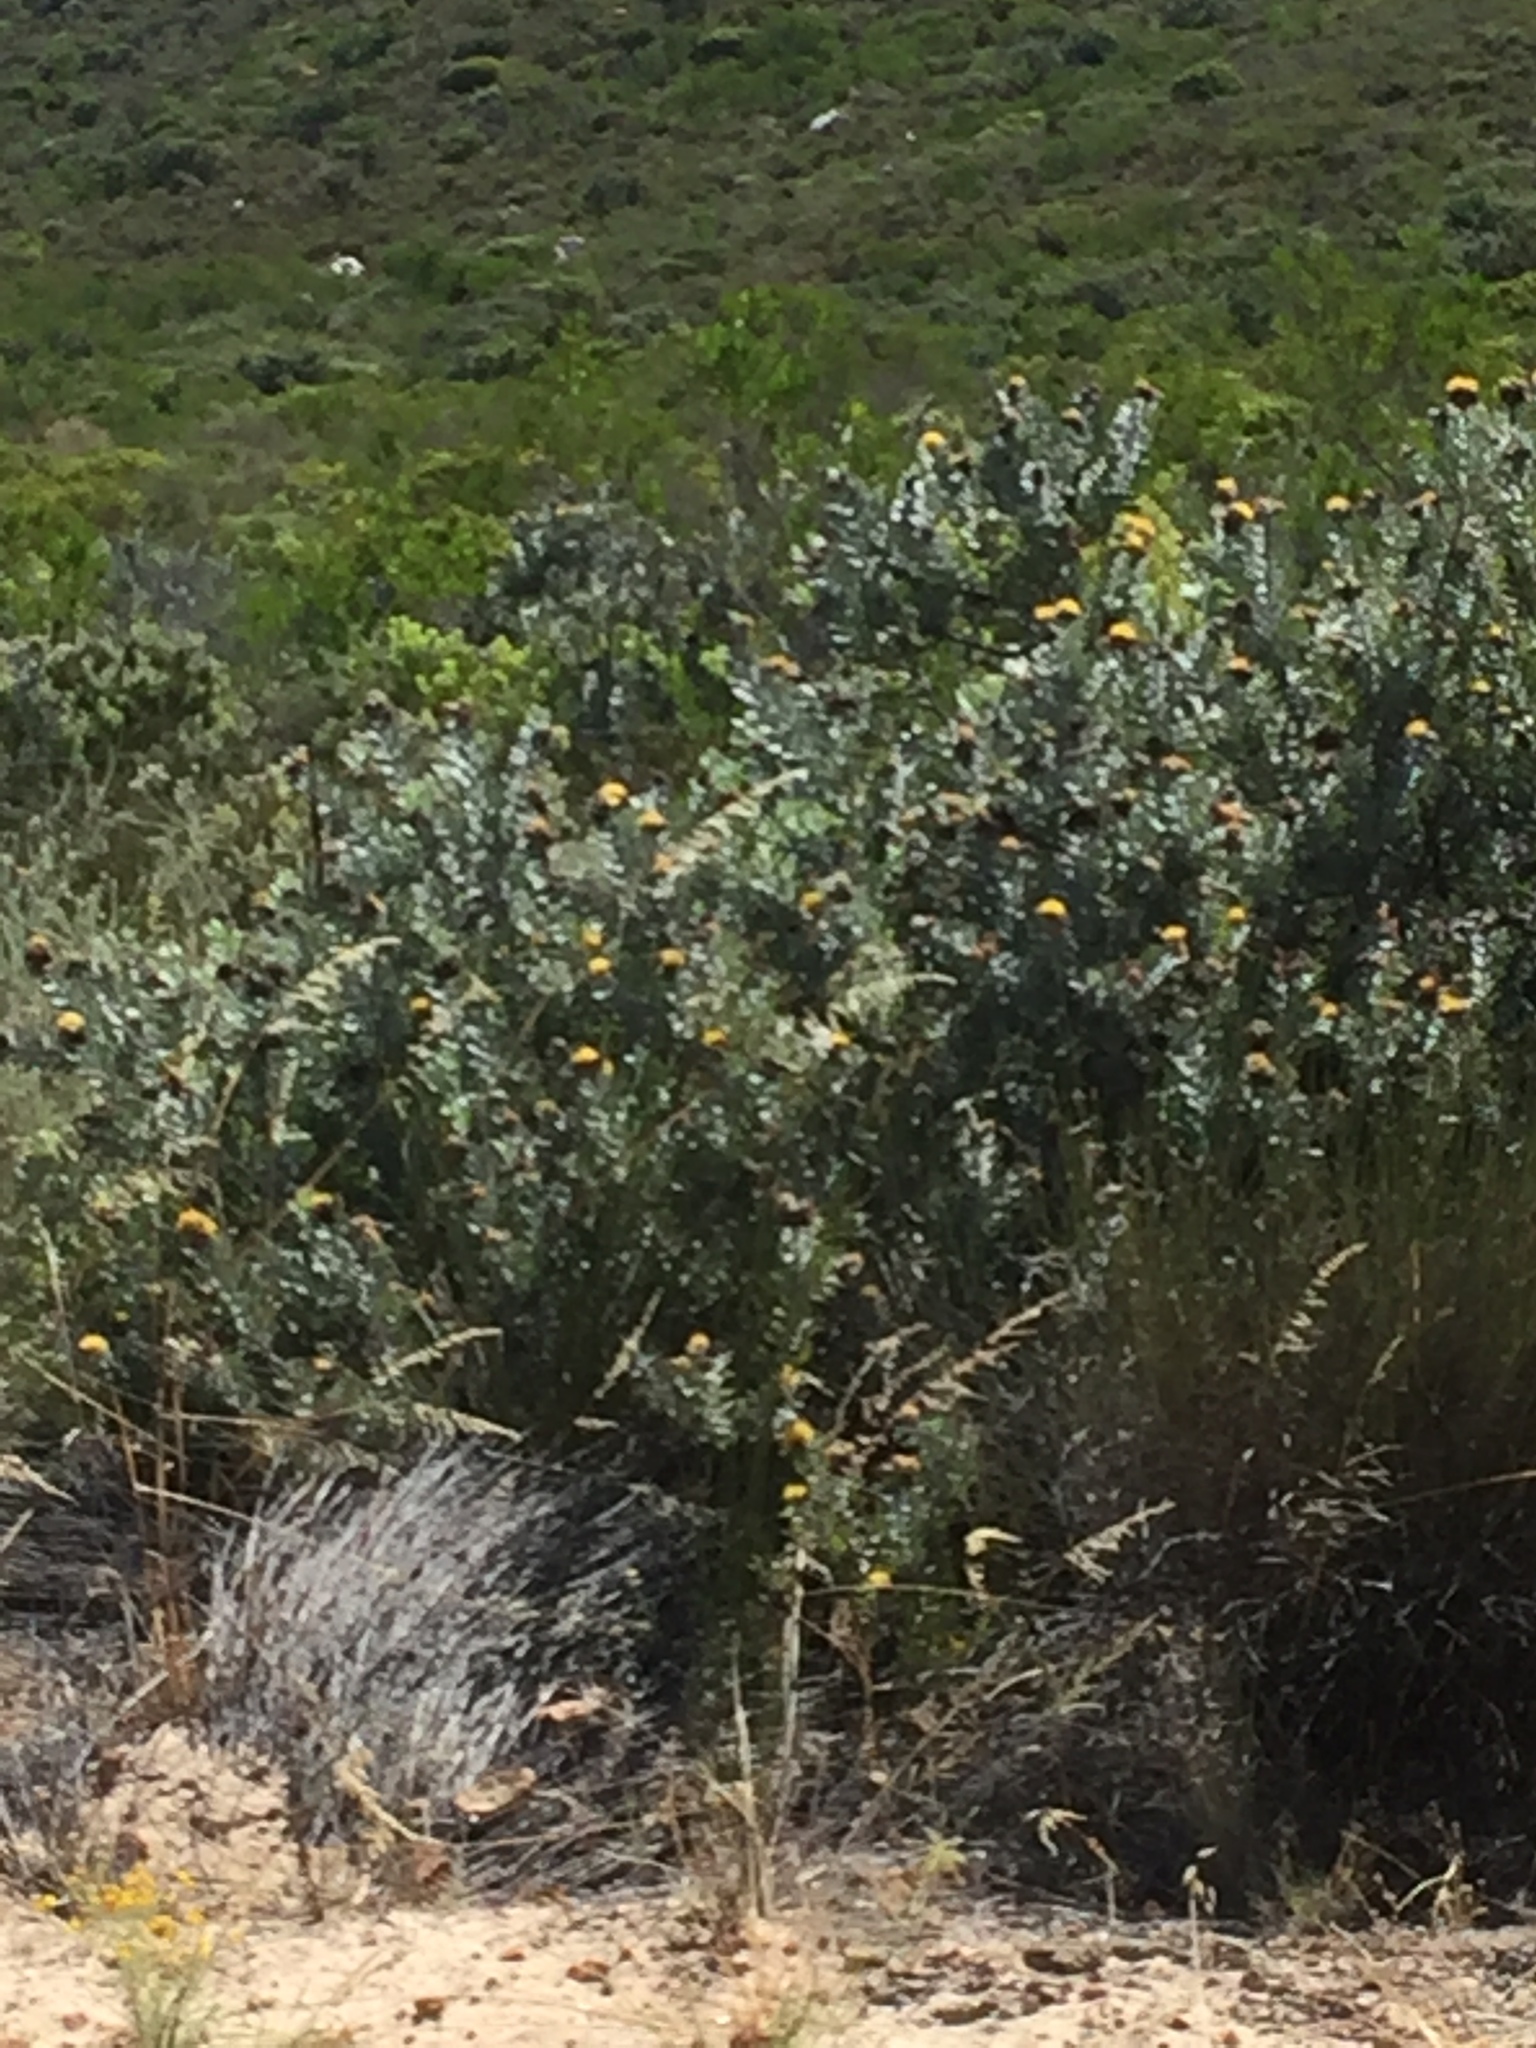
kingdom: Plantae
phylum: Tracheophyta
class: Magnoliopsida
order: Proteales
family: Proteaceae
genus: Leucospermum
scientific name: Leucospermum rodolentum
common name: Pincushion
